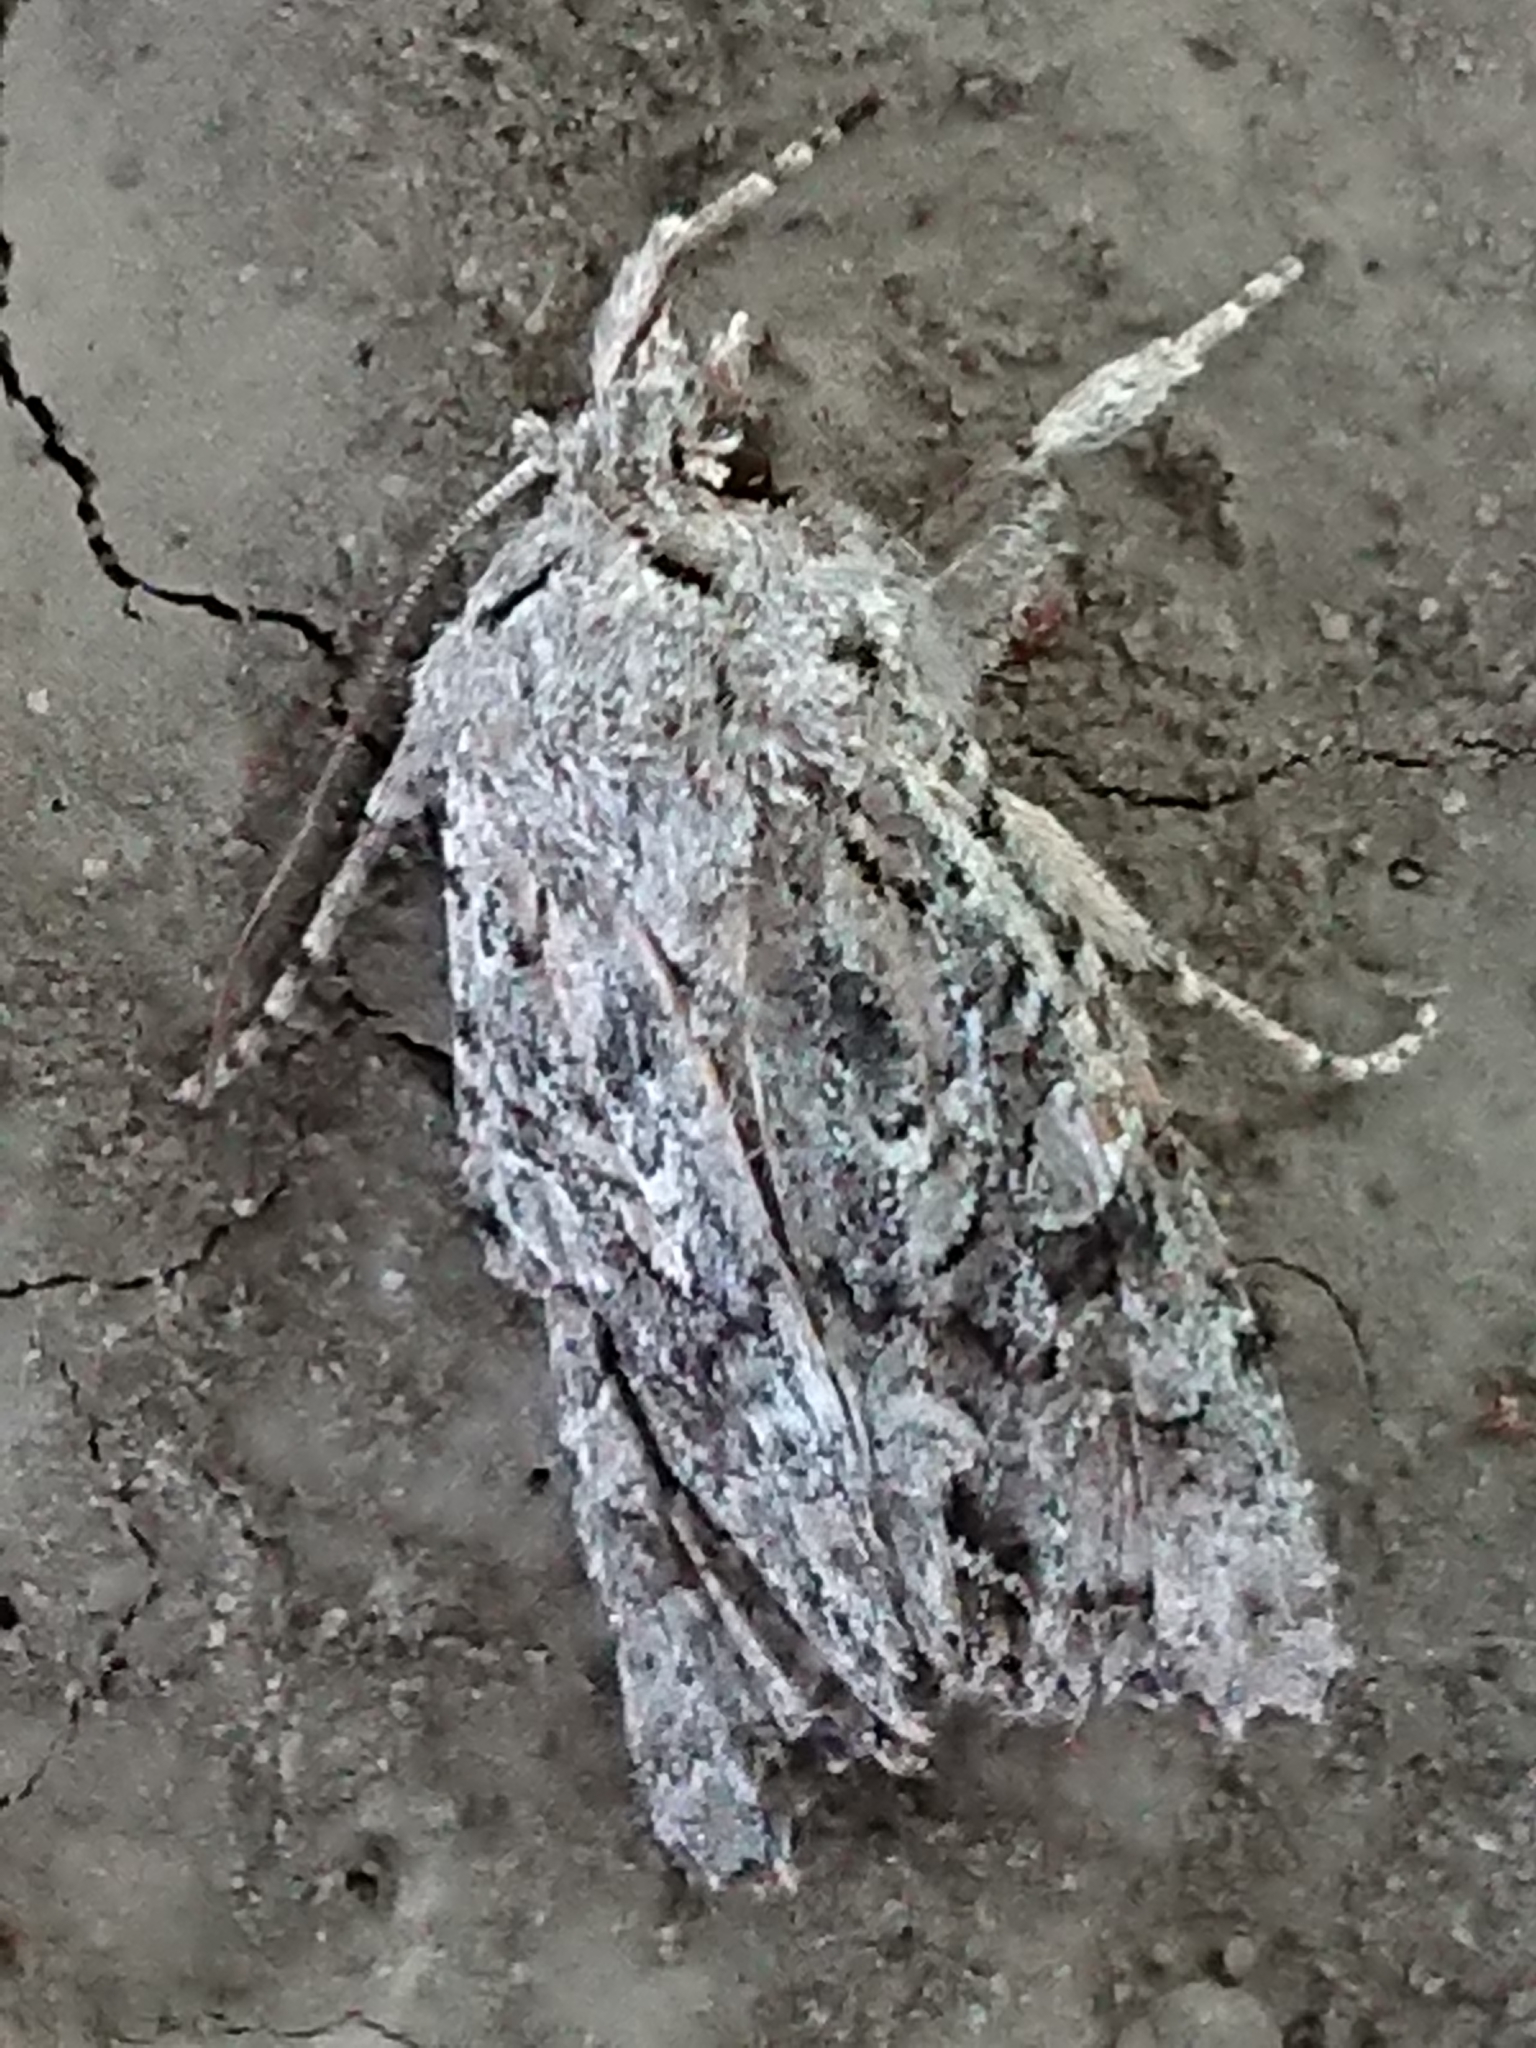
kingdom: Animalia
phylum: Arthropoda
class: Insecta
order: Lepidoptera
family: Noctuidae
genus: Ichneutica
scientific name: Ichneutica mutans
